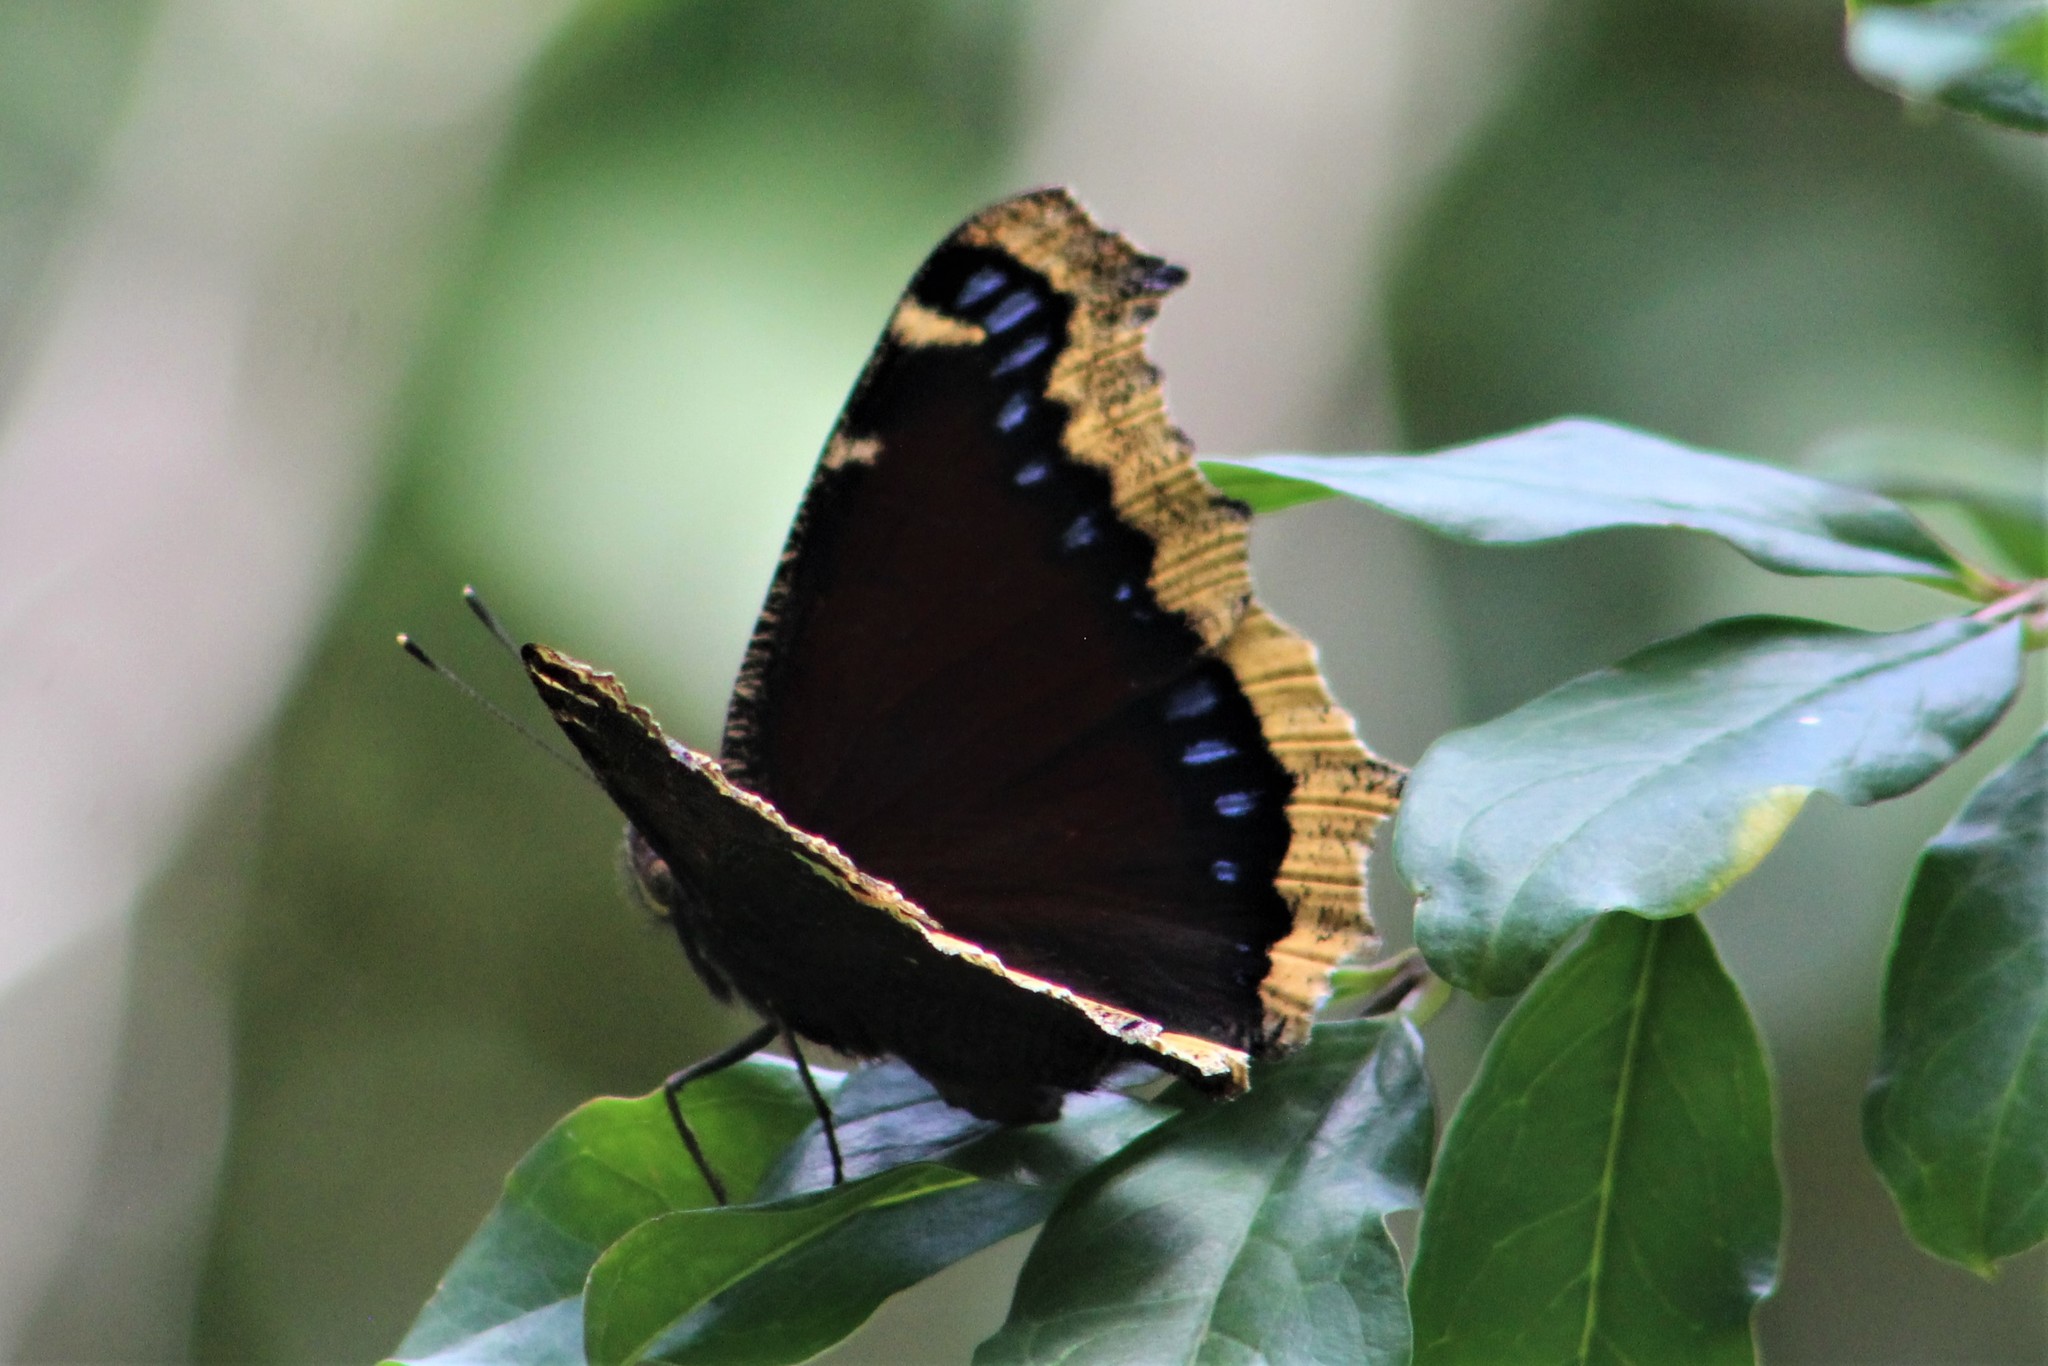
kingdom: Animalia
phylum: Arthropoda
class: Insecta
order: Lepidoptera
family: Nymphalidae
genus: Nymphalis
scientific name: Nymphalis antiopa
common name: Camberwell beauty
